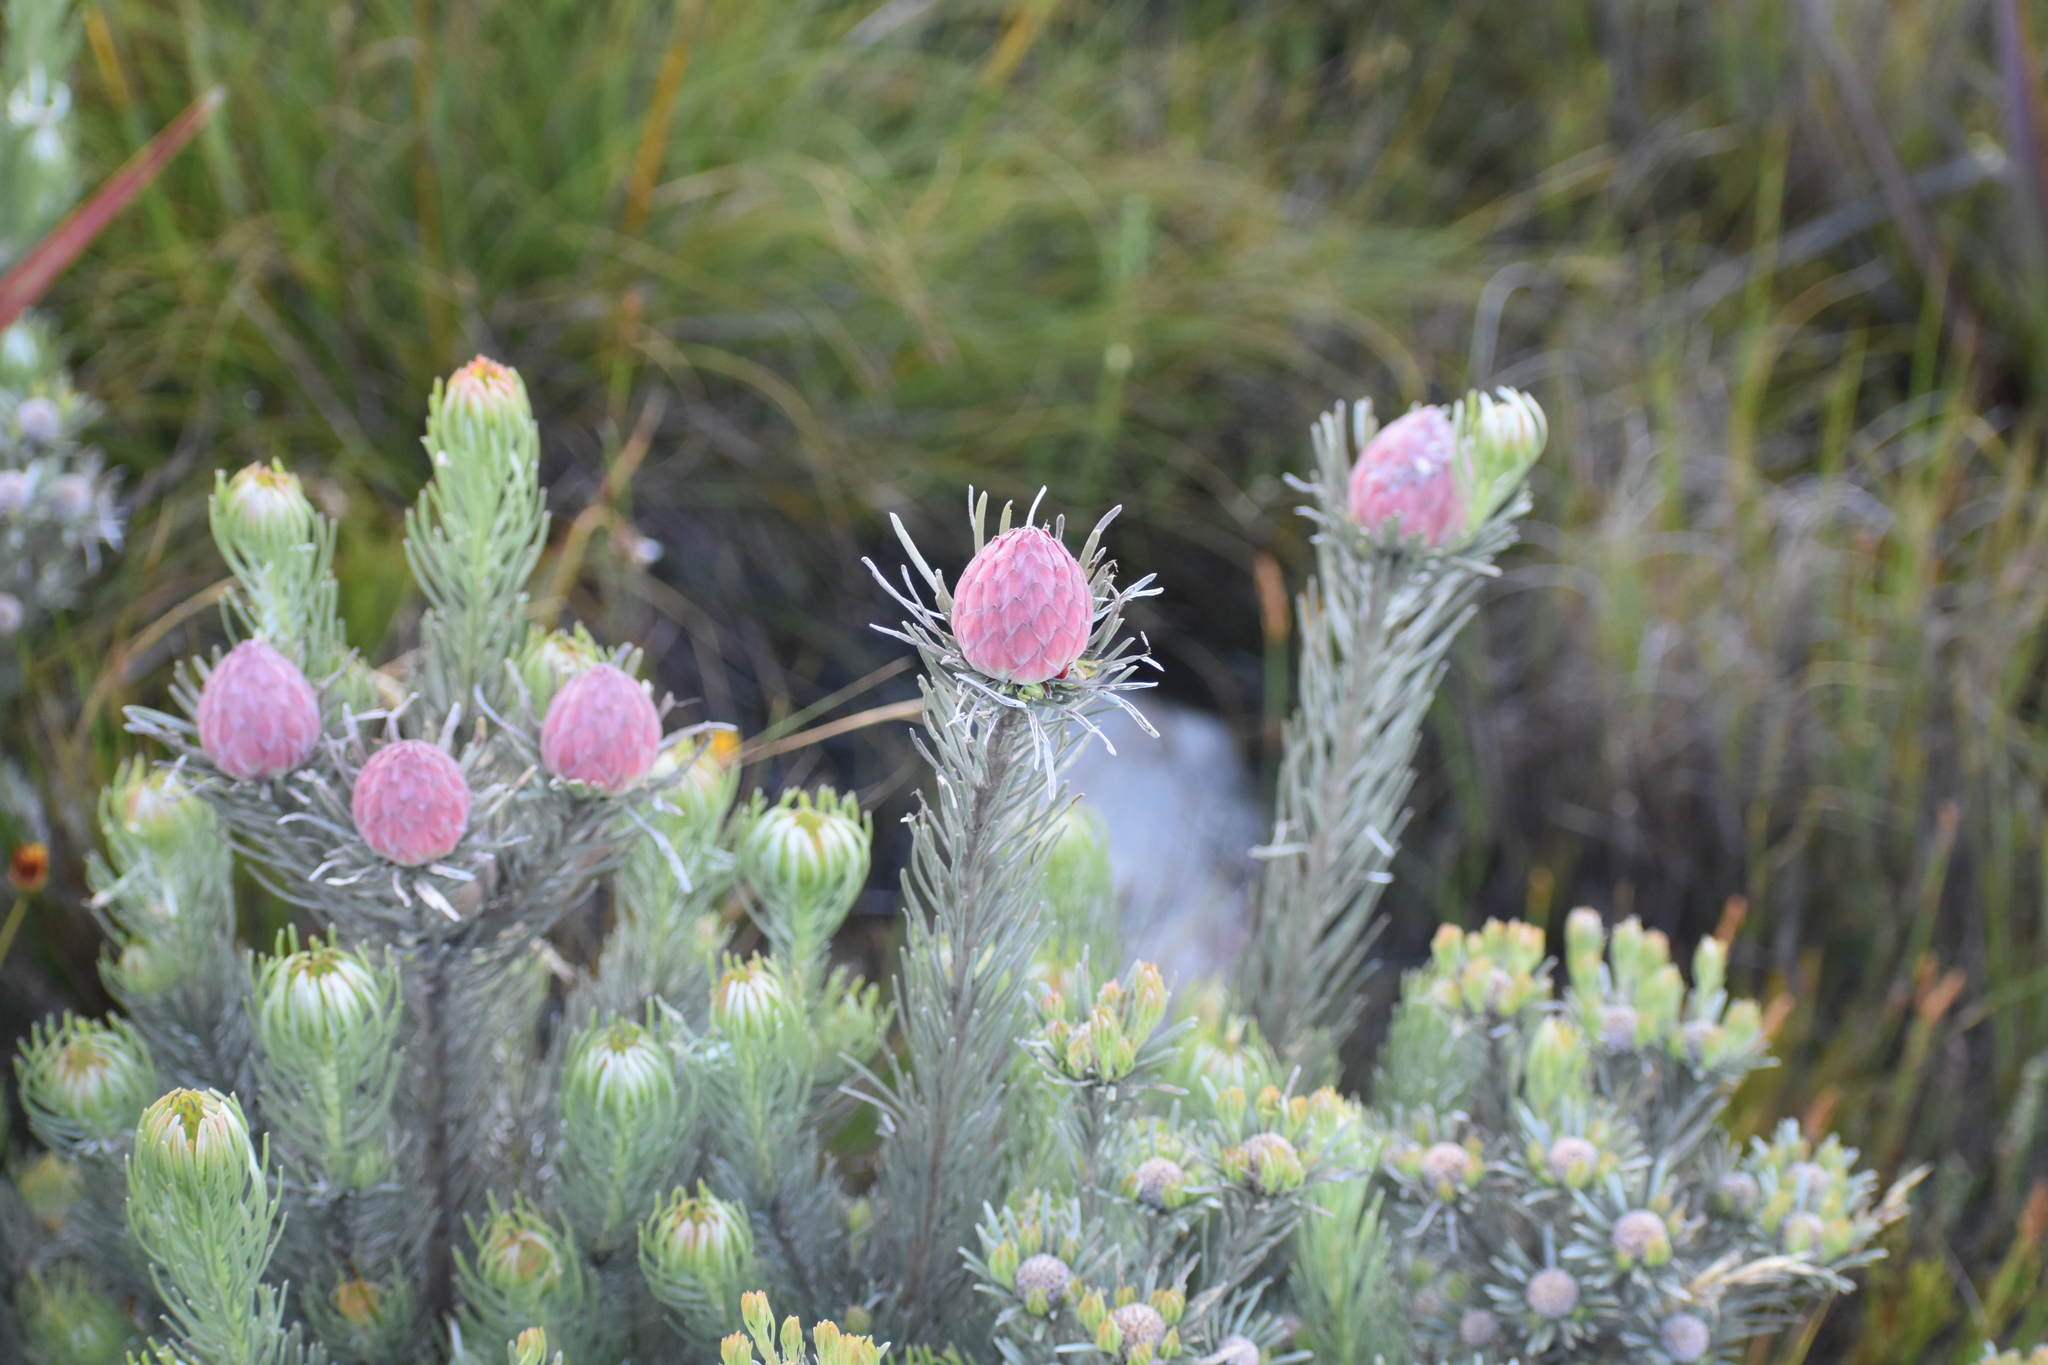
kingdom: Plantae
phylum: Tracheophyta
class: Magnoliopsida
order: Proteales
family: Proteaceae
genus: Leucadendron
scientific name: Leucadendron album
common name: Linear-leaf conebush
